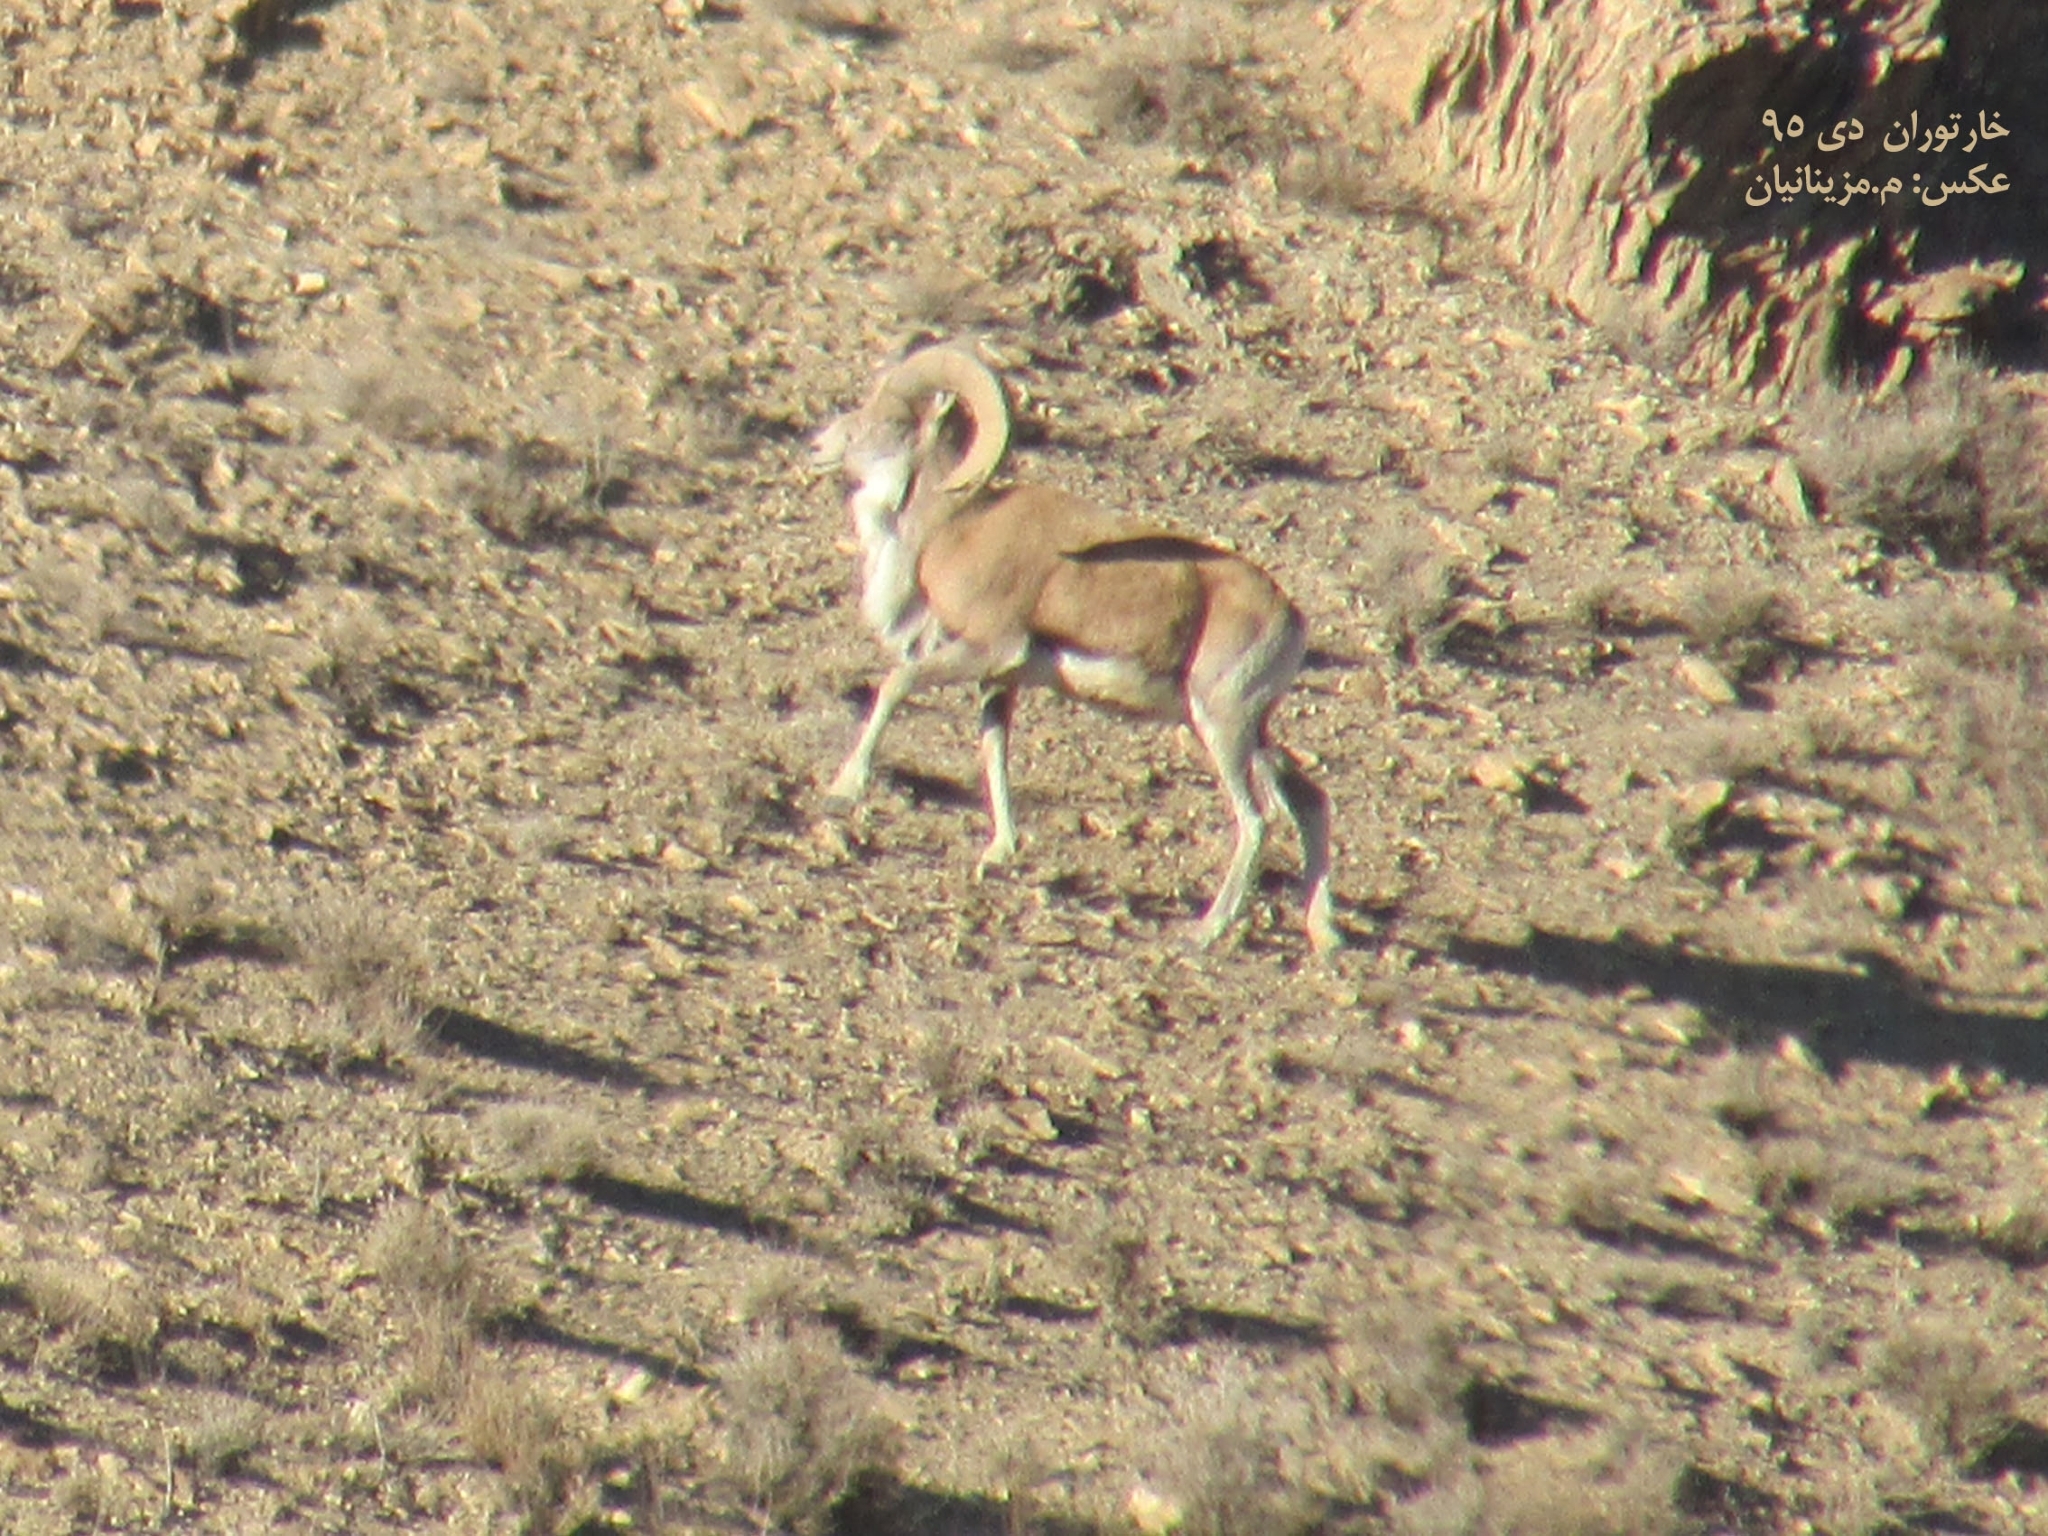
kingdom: Animalia
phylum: Chordata
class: Mammalia
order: Artiodactyla
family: Bovidae
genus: Ovis
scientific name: Ovis aries
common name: Domestic sheep
